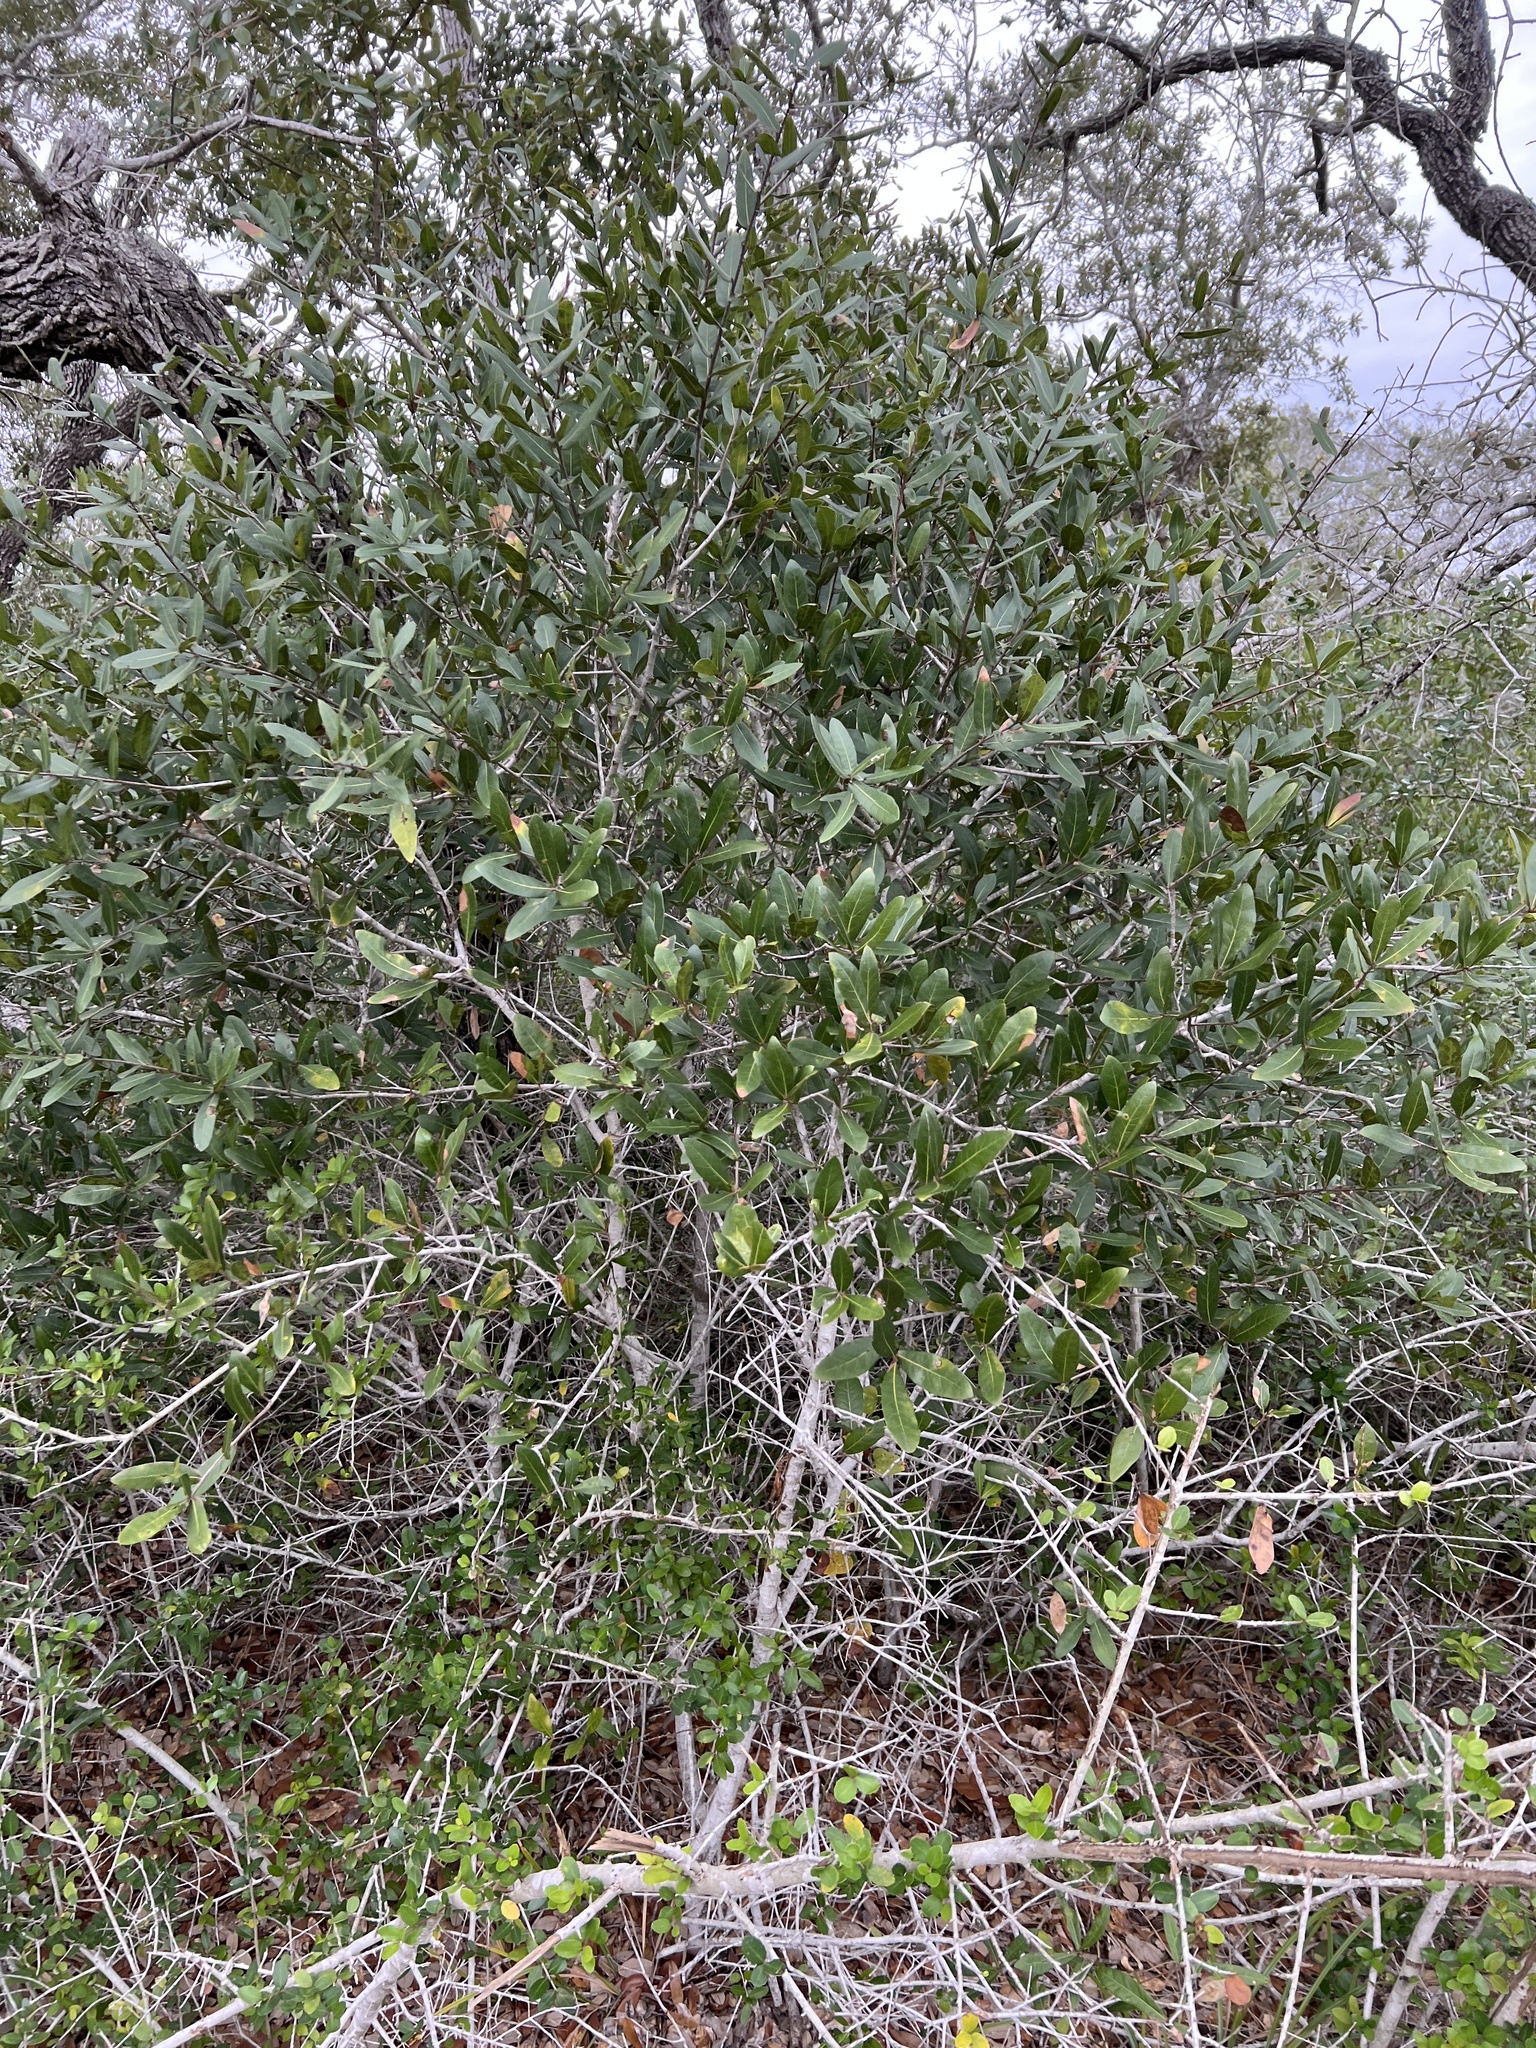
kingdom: Plantae
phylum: Tracheophyta
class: Magnoliopsida
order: Fagales
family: Fagaceae
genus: Quercus
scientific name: Quercus laurifolia
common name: Swamp laurel oak
